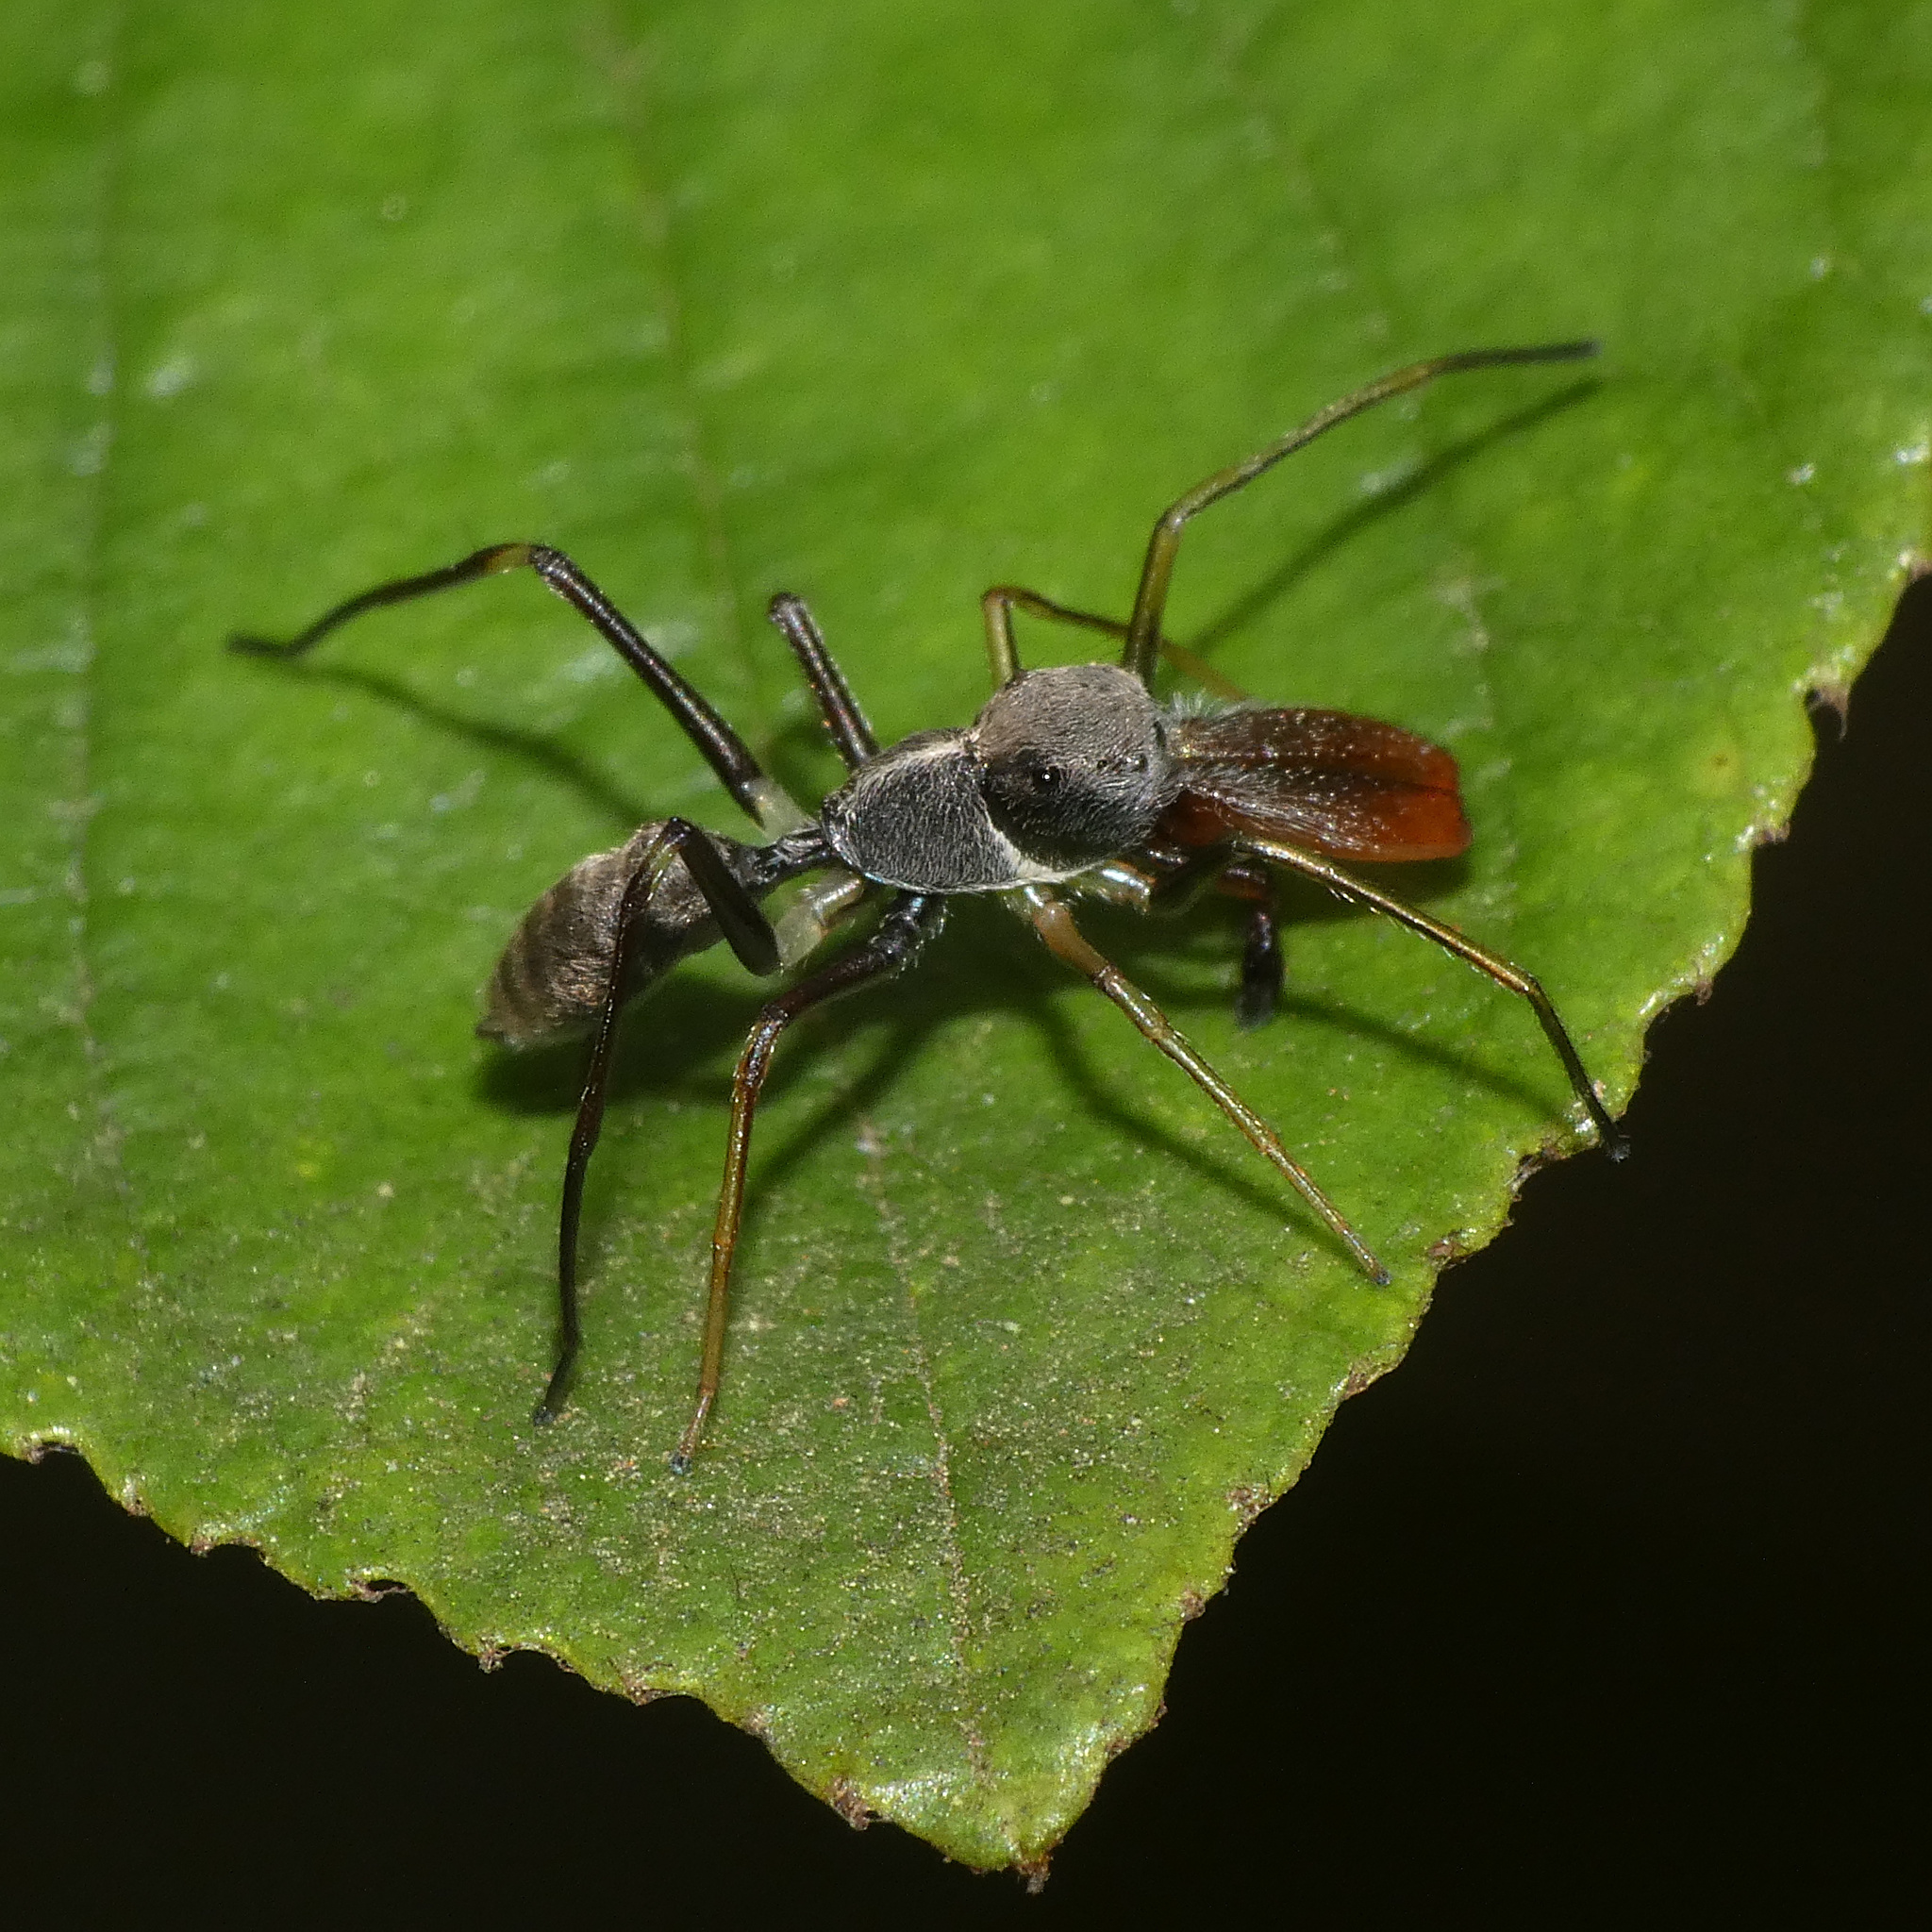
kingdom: Animalia
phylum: Arthropoda
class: Arachnida
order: Araneae
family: Salticidae
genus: Myrmarachne
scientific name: Myrmarachne marshalli
